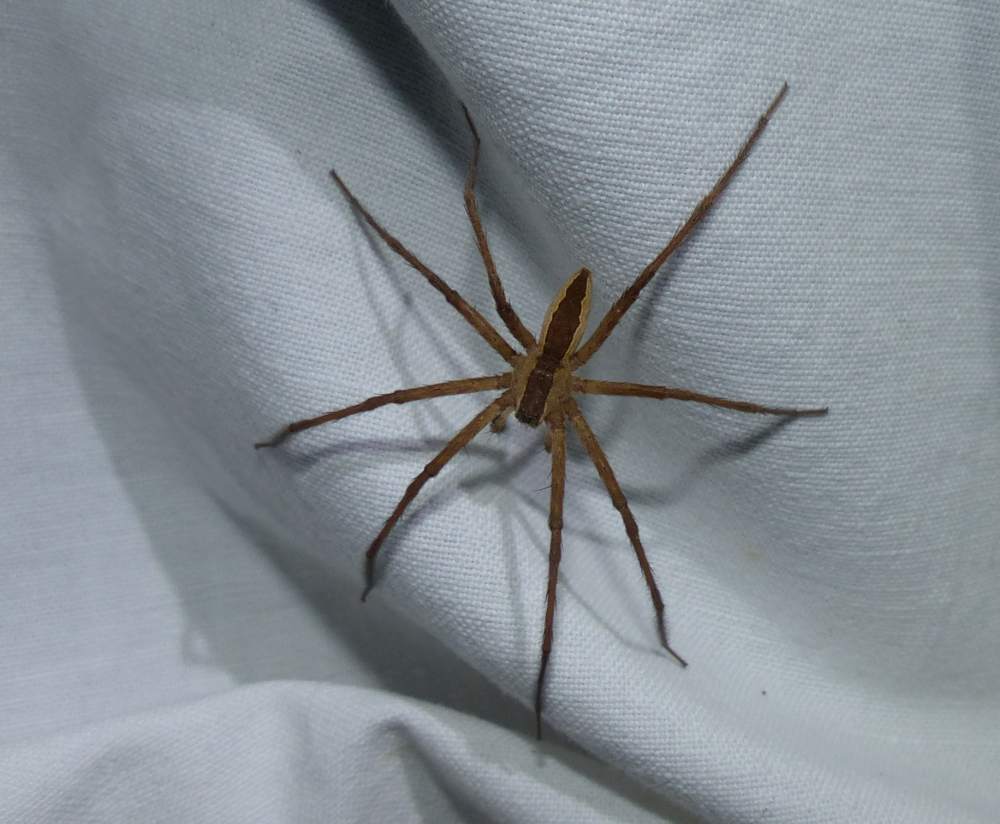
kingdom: Animalia
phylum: Arthropoda
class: Arachnida
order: Araneae
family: Pisauridae
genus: Pisaurina
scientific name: Pisaurina mira
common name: American nursery web spider
